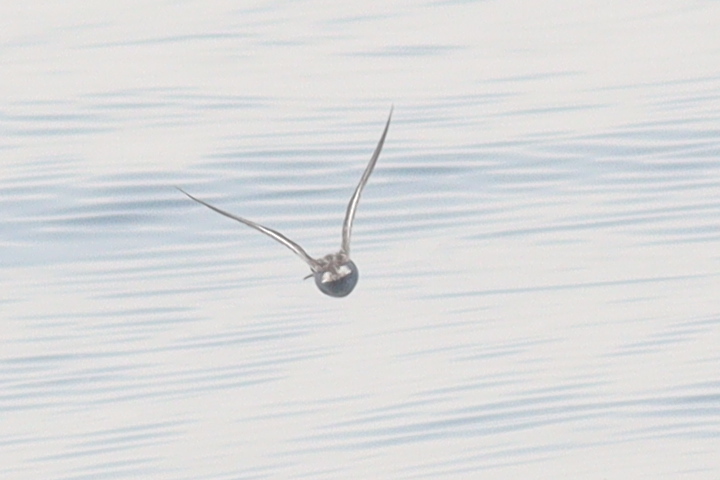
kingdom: Animalia
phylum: Chordata
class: Aves
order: Charadriiformes
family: Scolopacidae
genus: Phalaropus
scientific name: Phalaropus lobatus
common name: Red-necked phalarope
